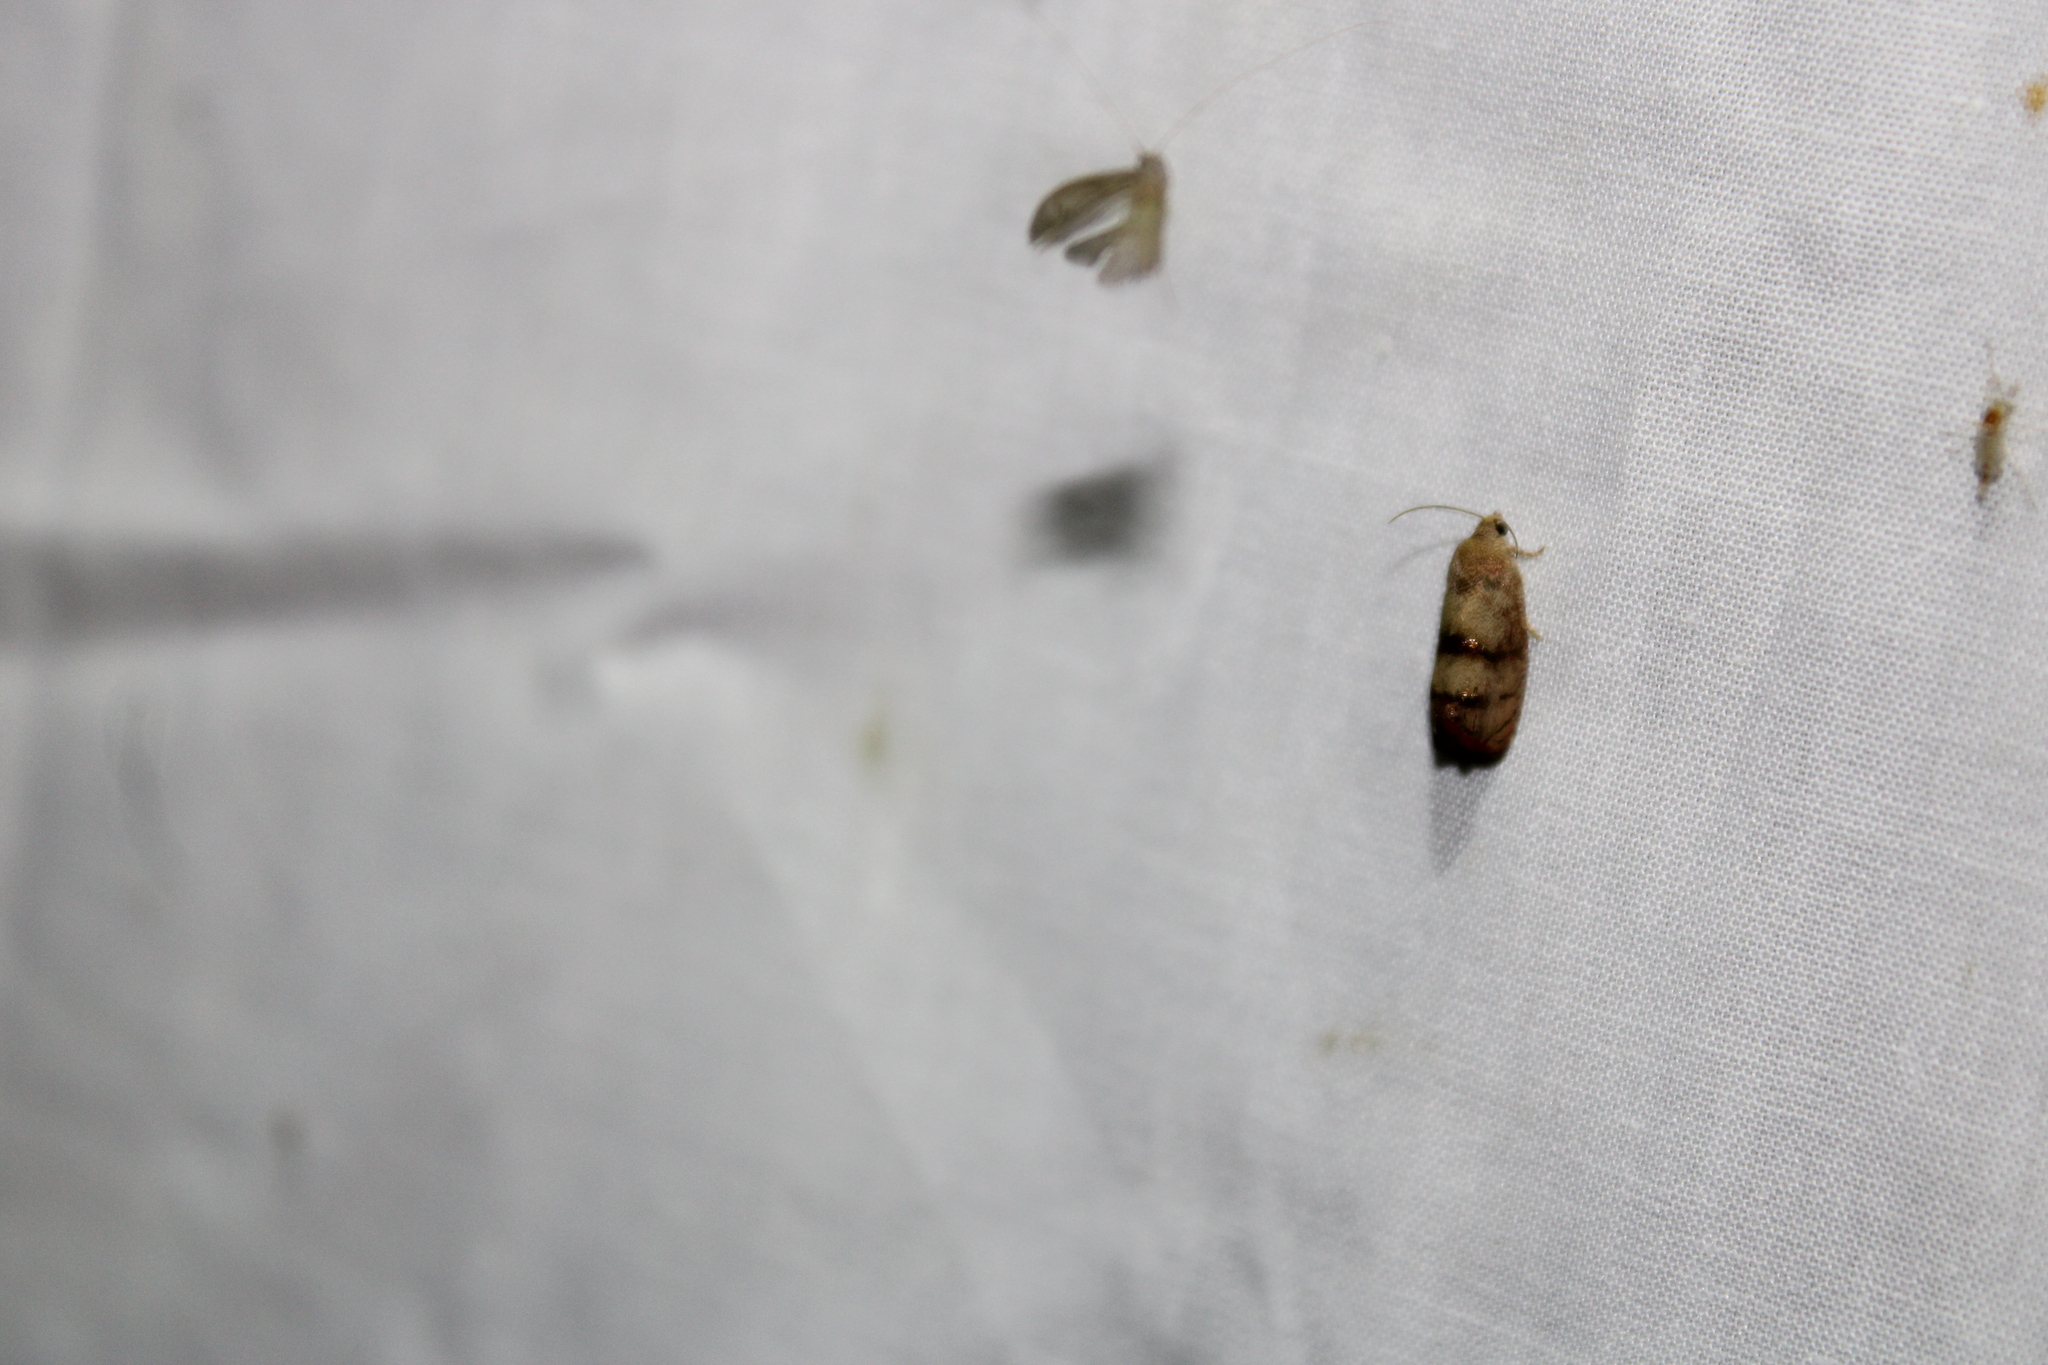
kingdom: Animalia
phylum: Arthropoda
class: Insecta
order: Lepidoptera
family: Tortricidae
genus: Cydia
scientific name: Cydia latiferreana
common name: Filbertworm moth
